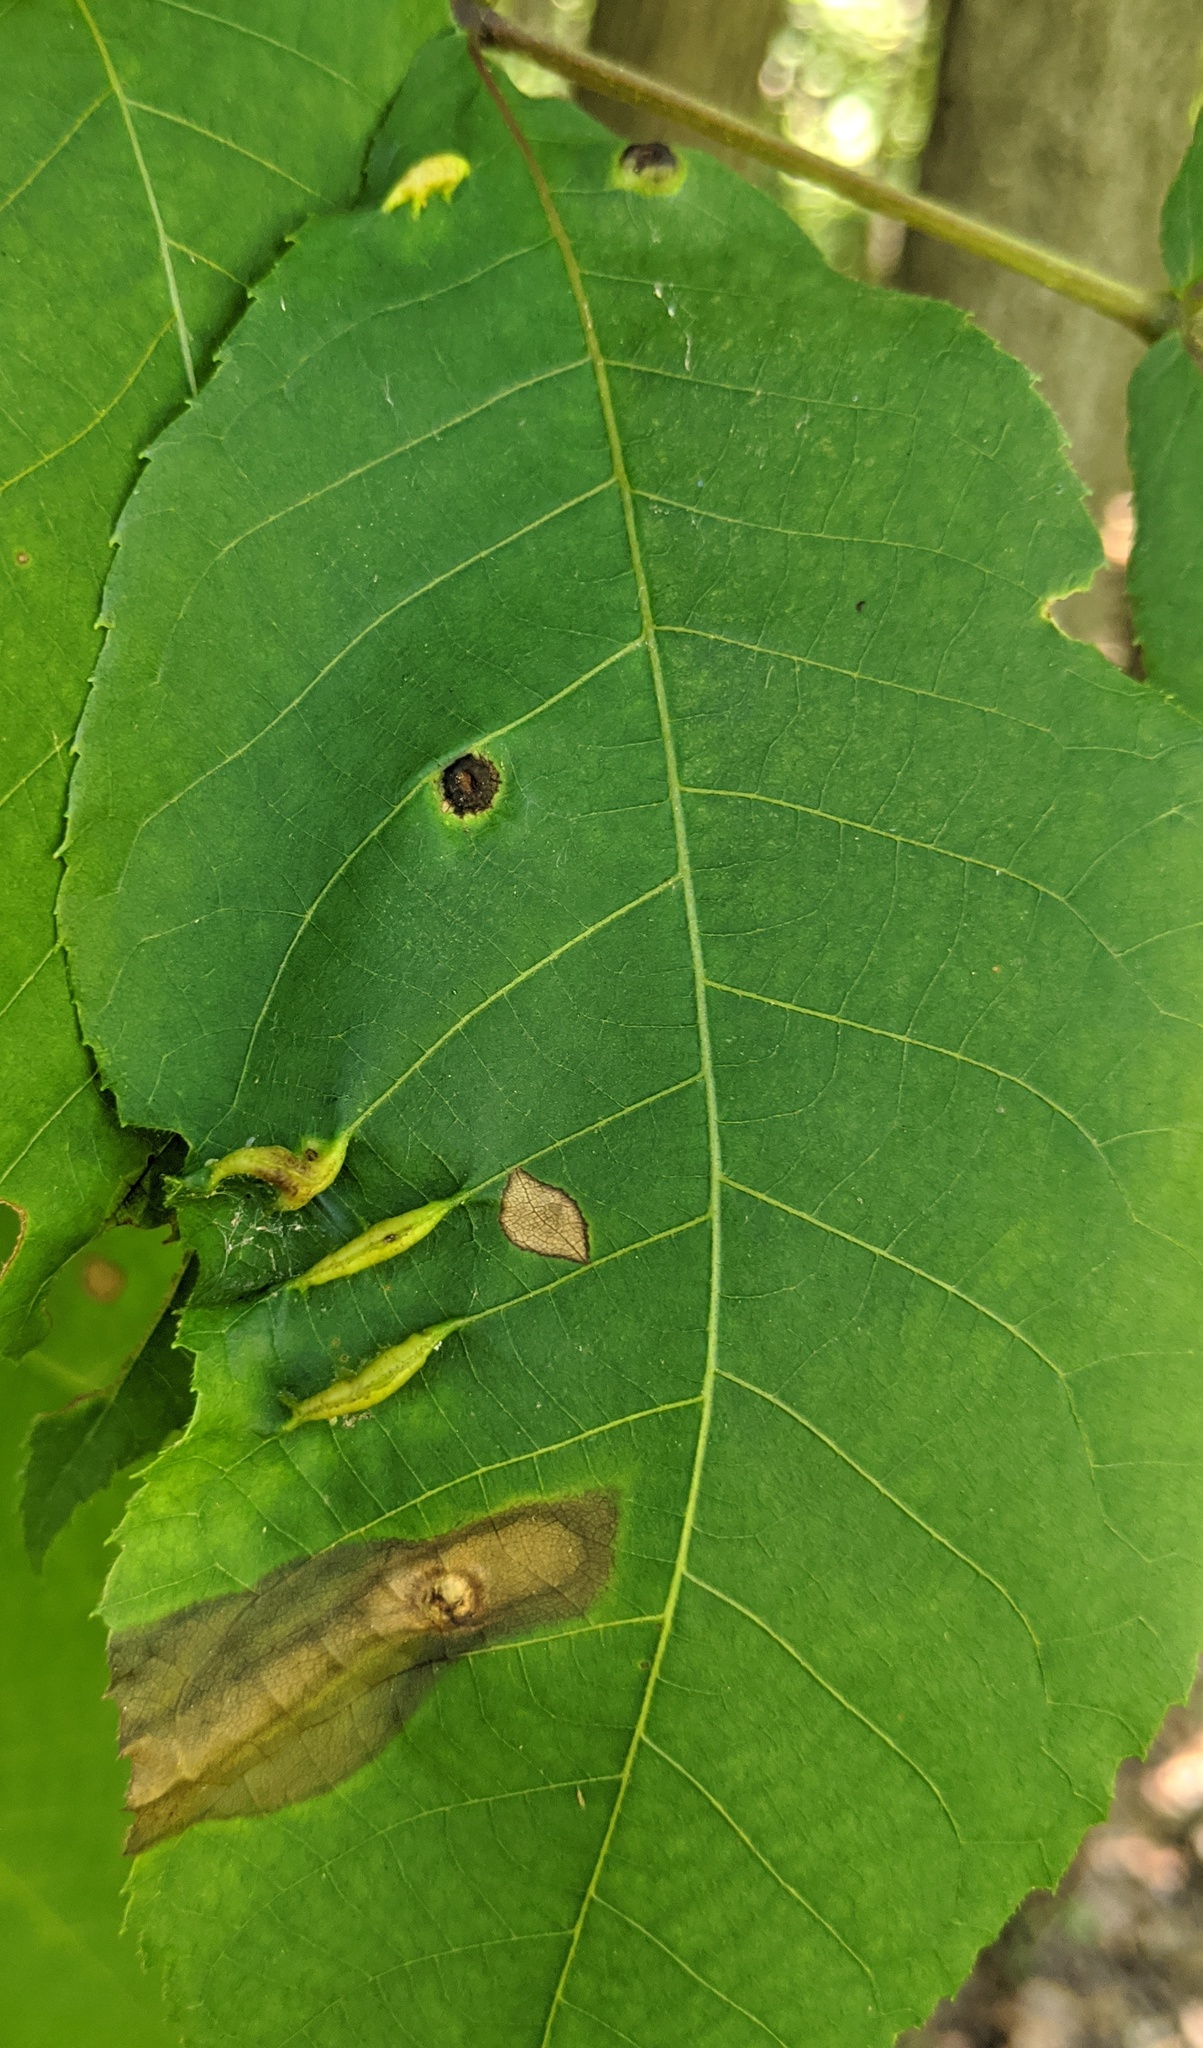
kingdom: Animalia
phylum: Arthropoda
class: Insecta
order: Hemiptera
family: Phylloxeridae
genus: Phylloxera
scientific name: Phylloxera caryaevenae
